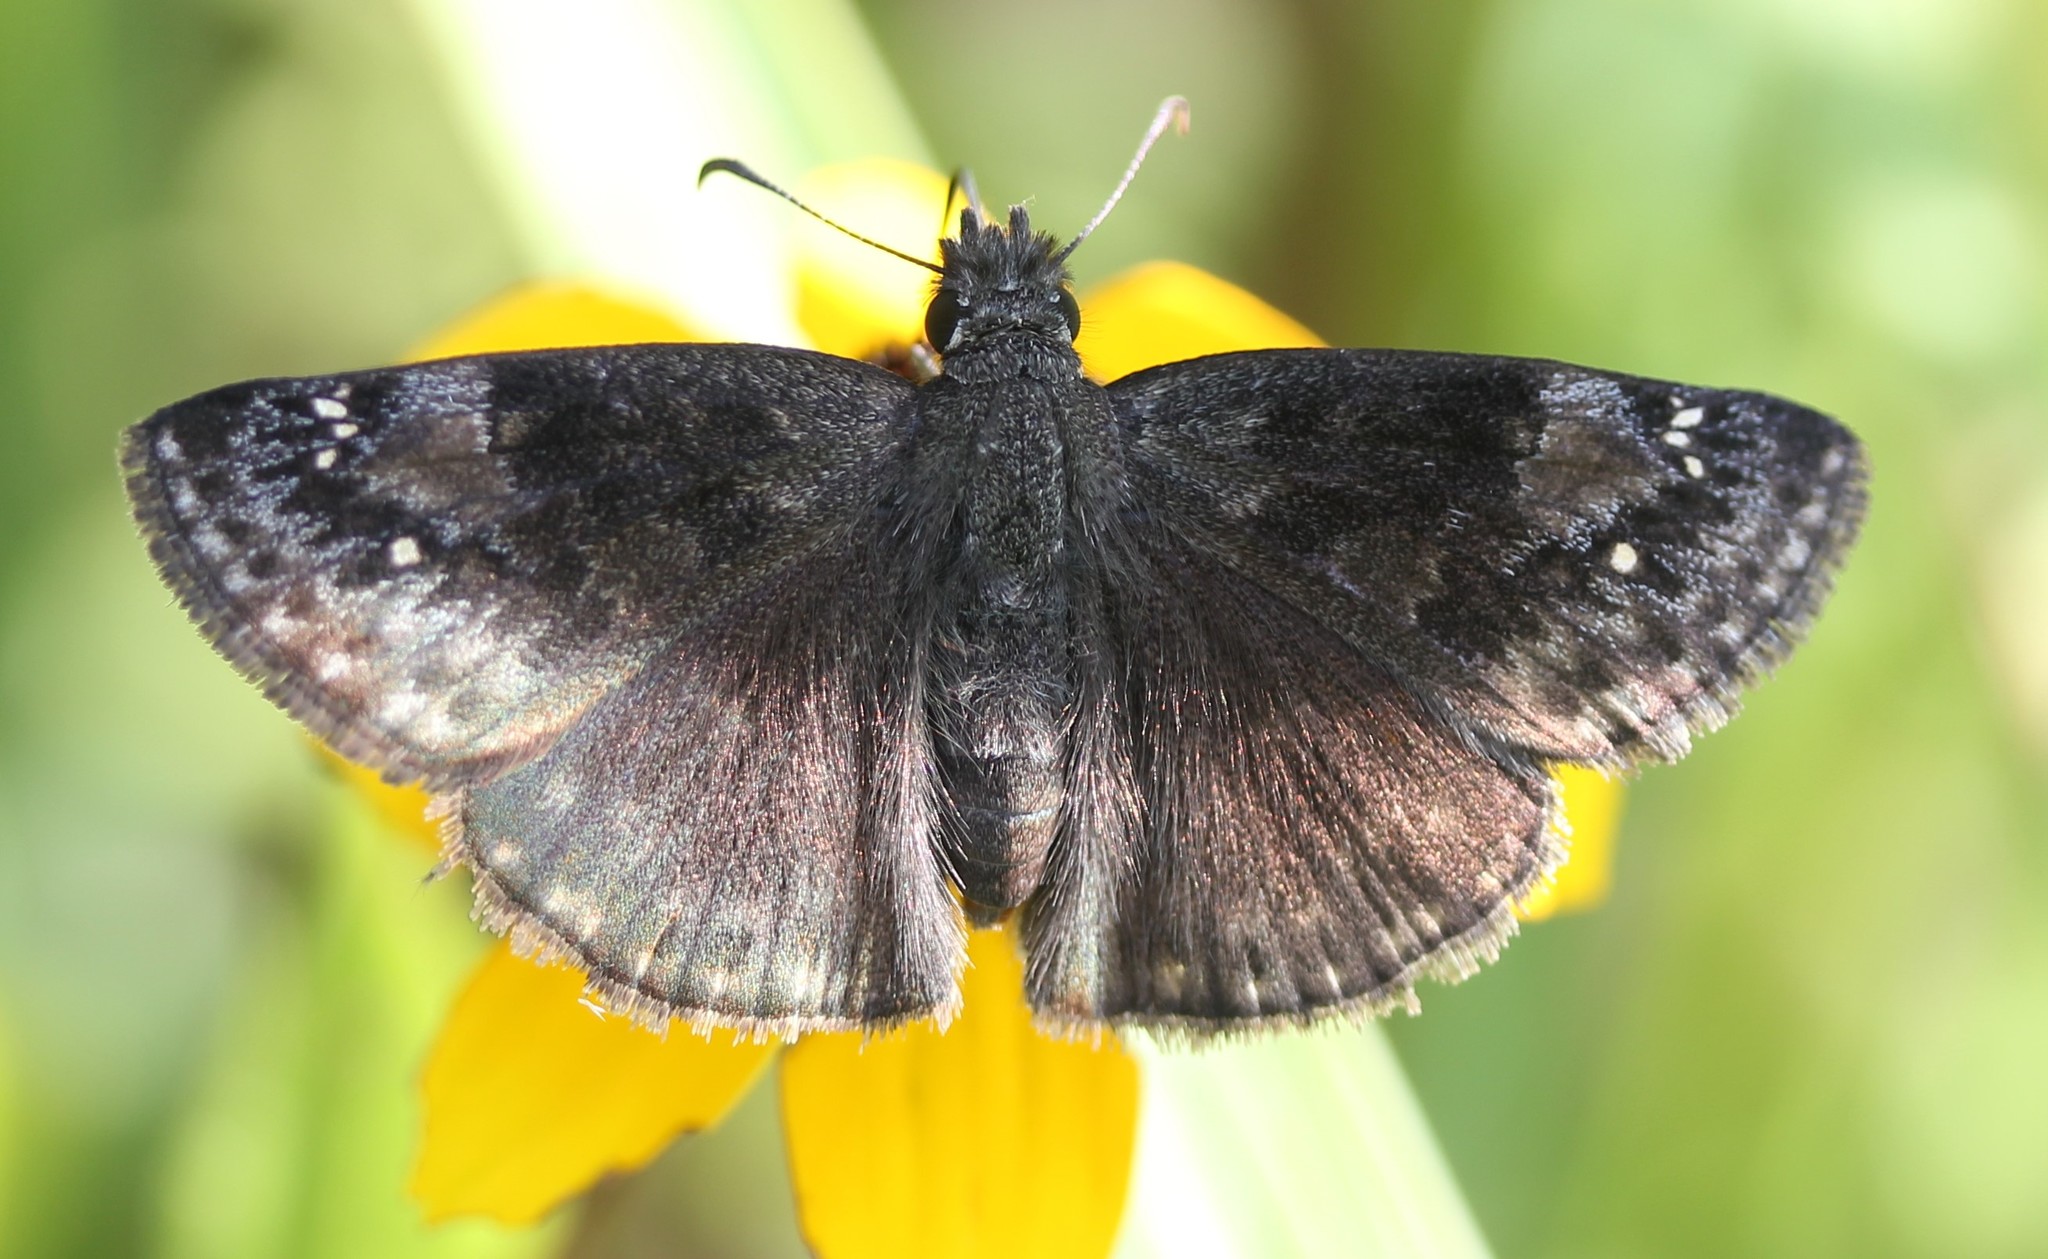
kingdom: Animalia
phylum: Arthropoda
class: Insecta
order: Lepidoptera
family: Hesperiidae
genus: Erynnis
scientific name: Erynnis baptisiae
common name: Wild indigo duskywing
